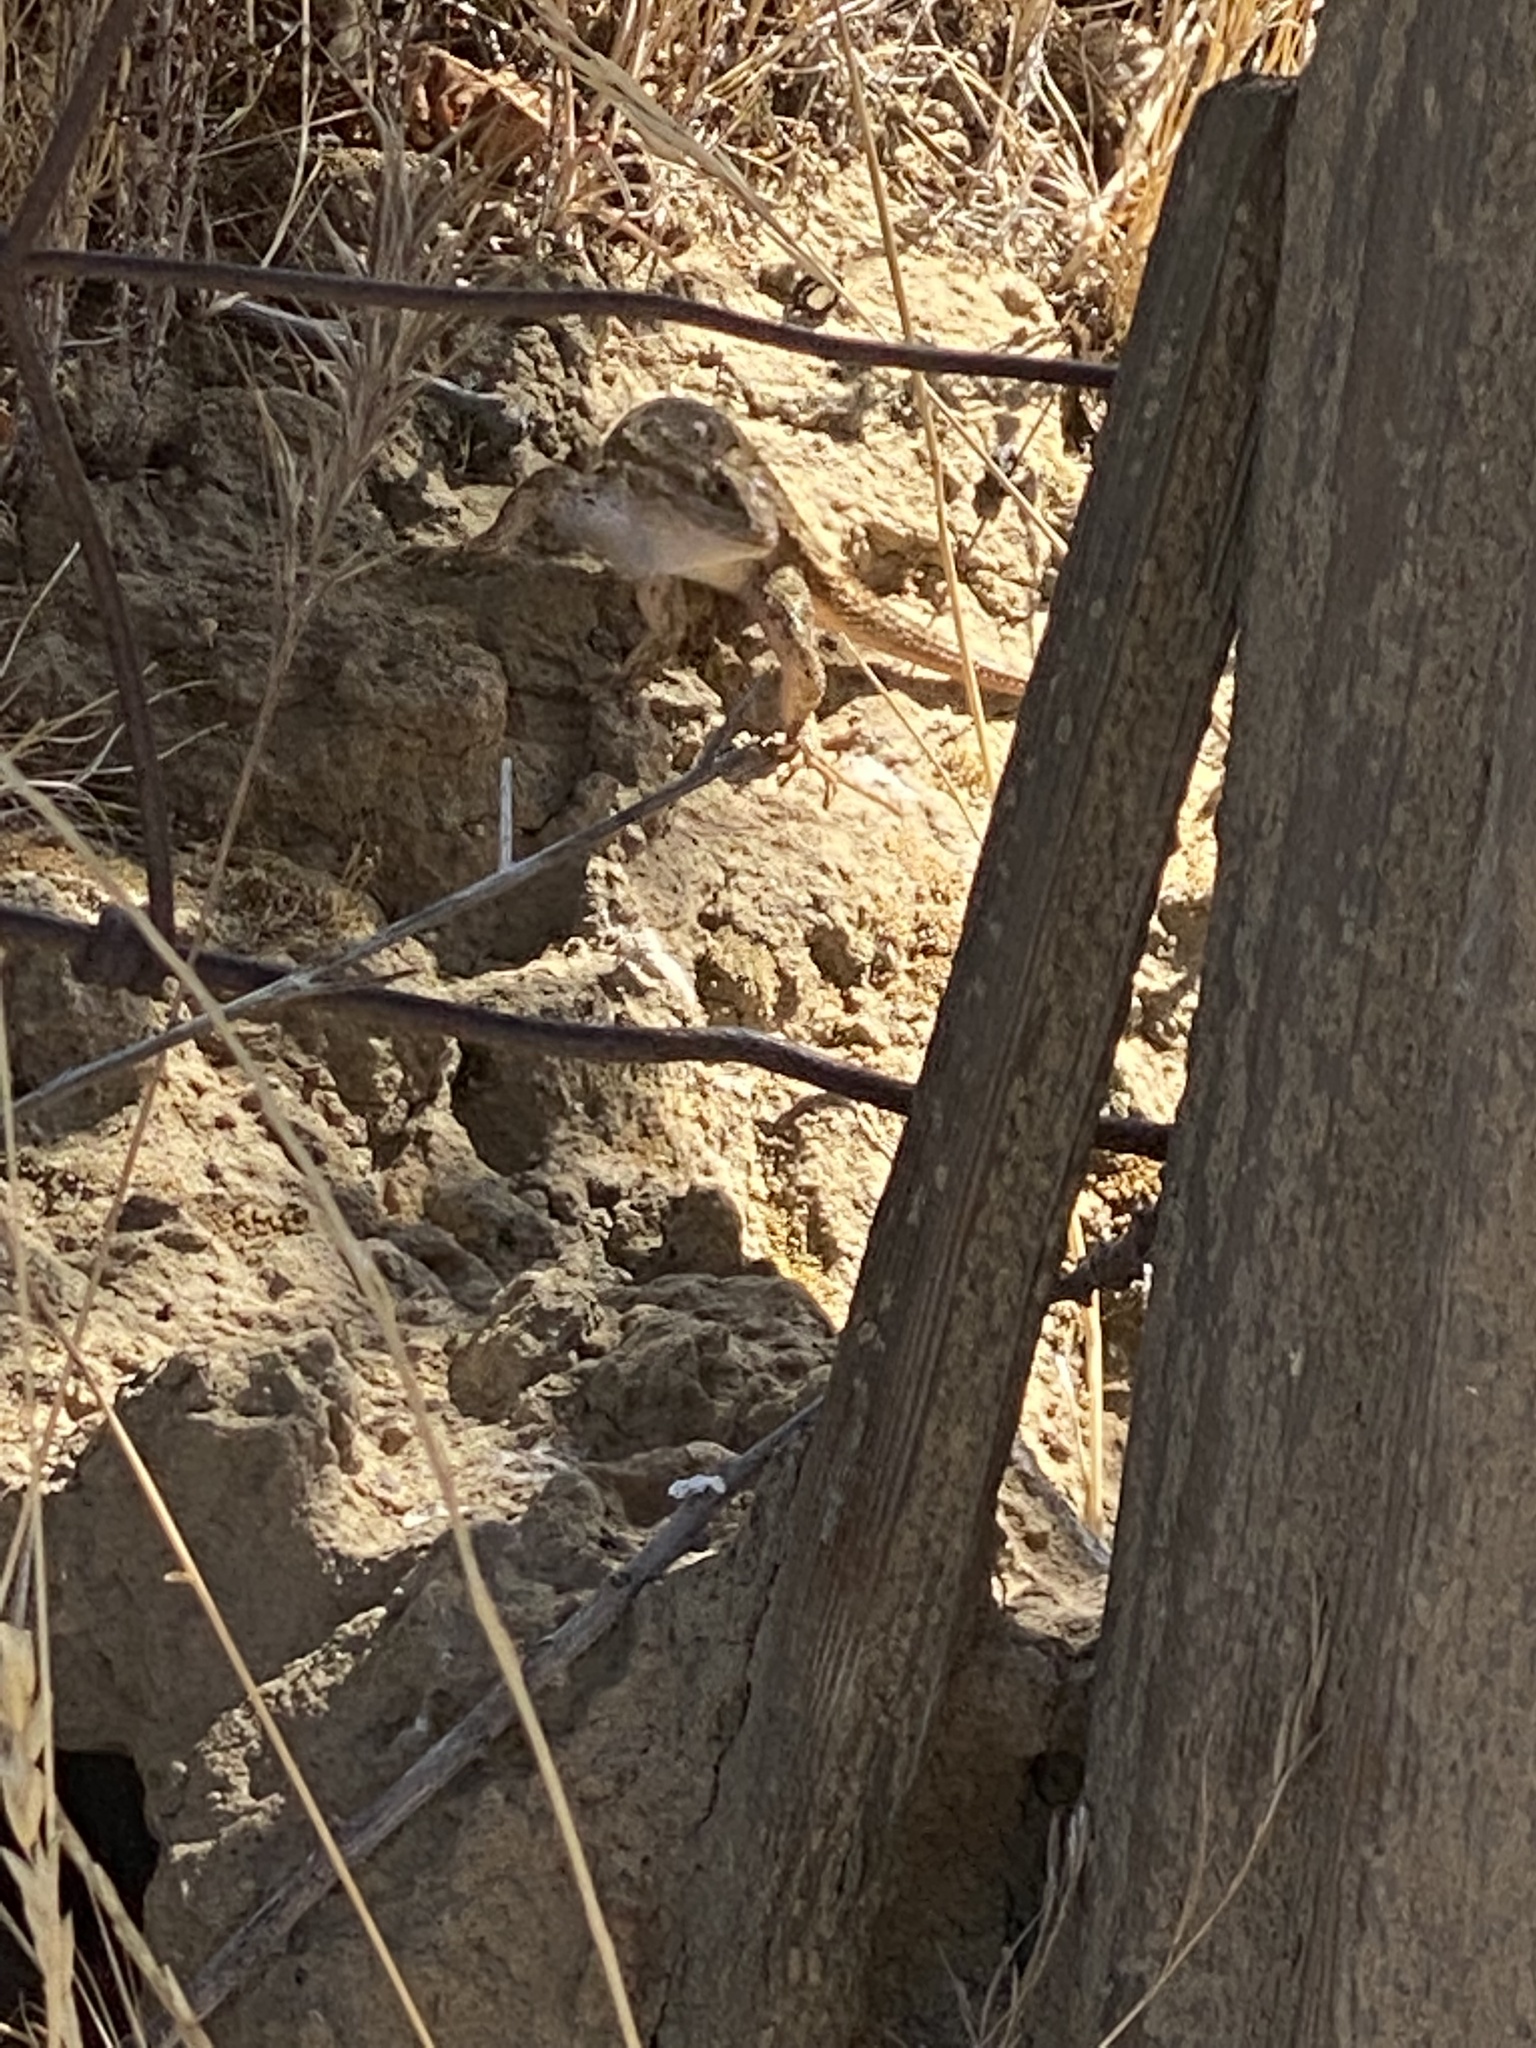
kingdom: Animalia
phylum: Chordata
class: Squamata
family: Phrynosomatidae
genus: Sceloporus
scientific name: Sceloporus occidentalis
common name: Western fence lizard
